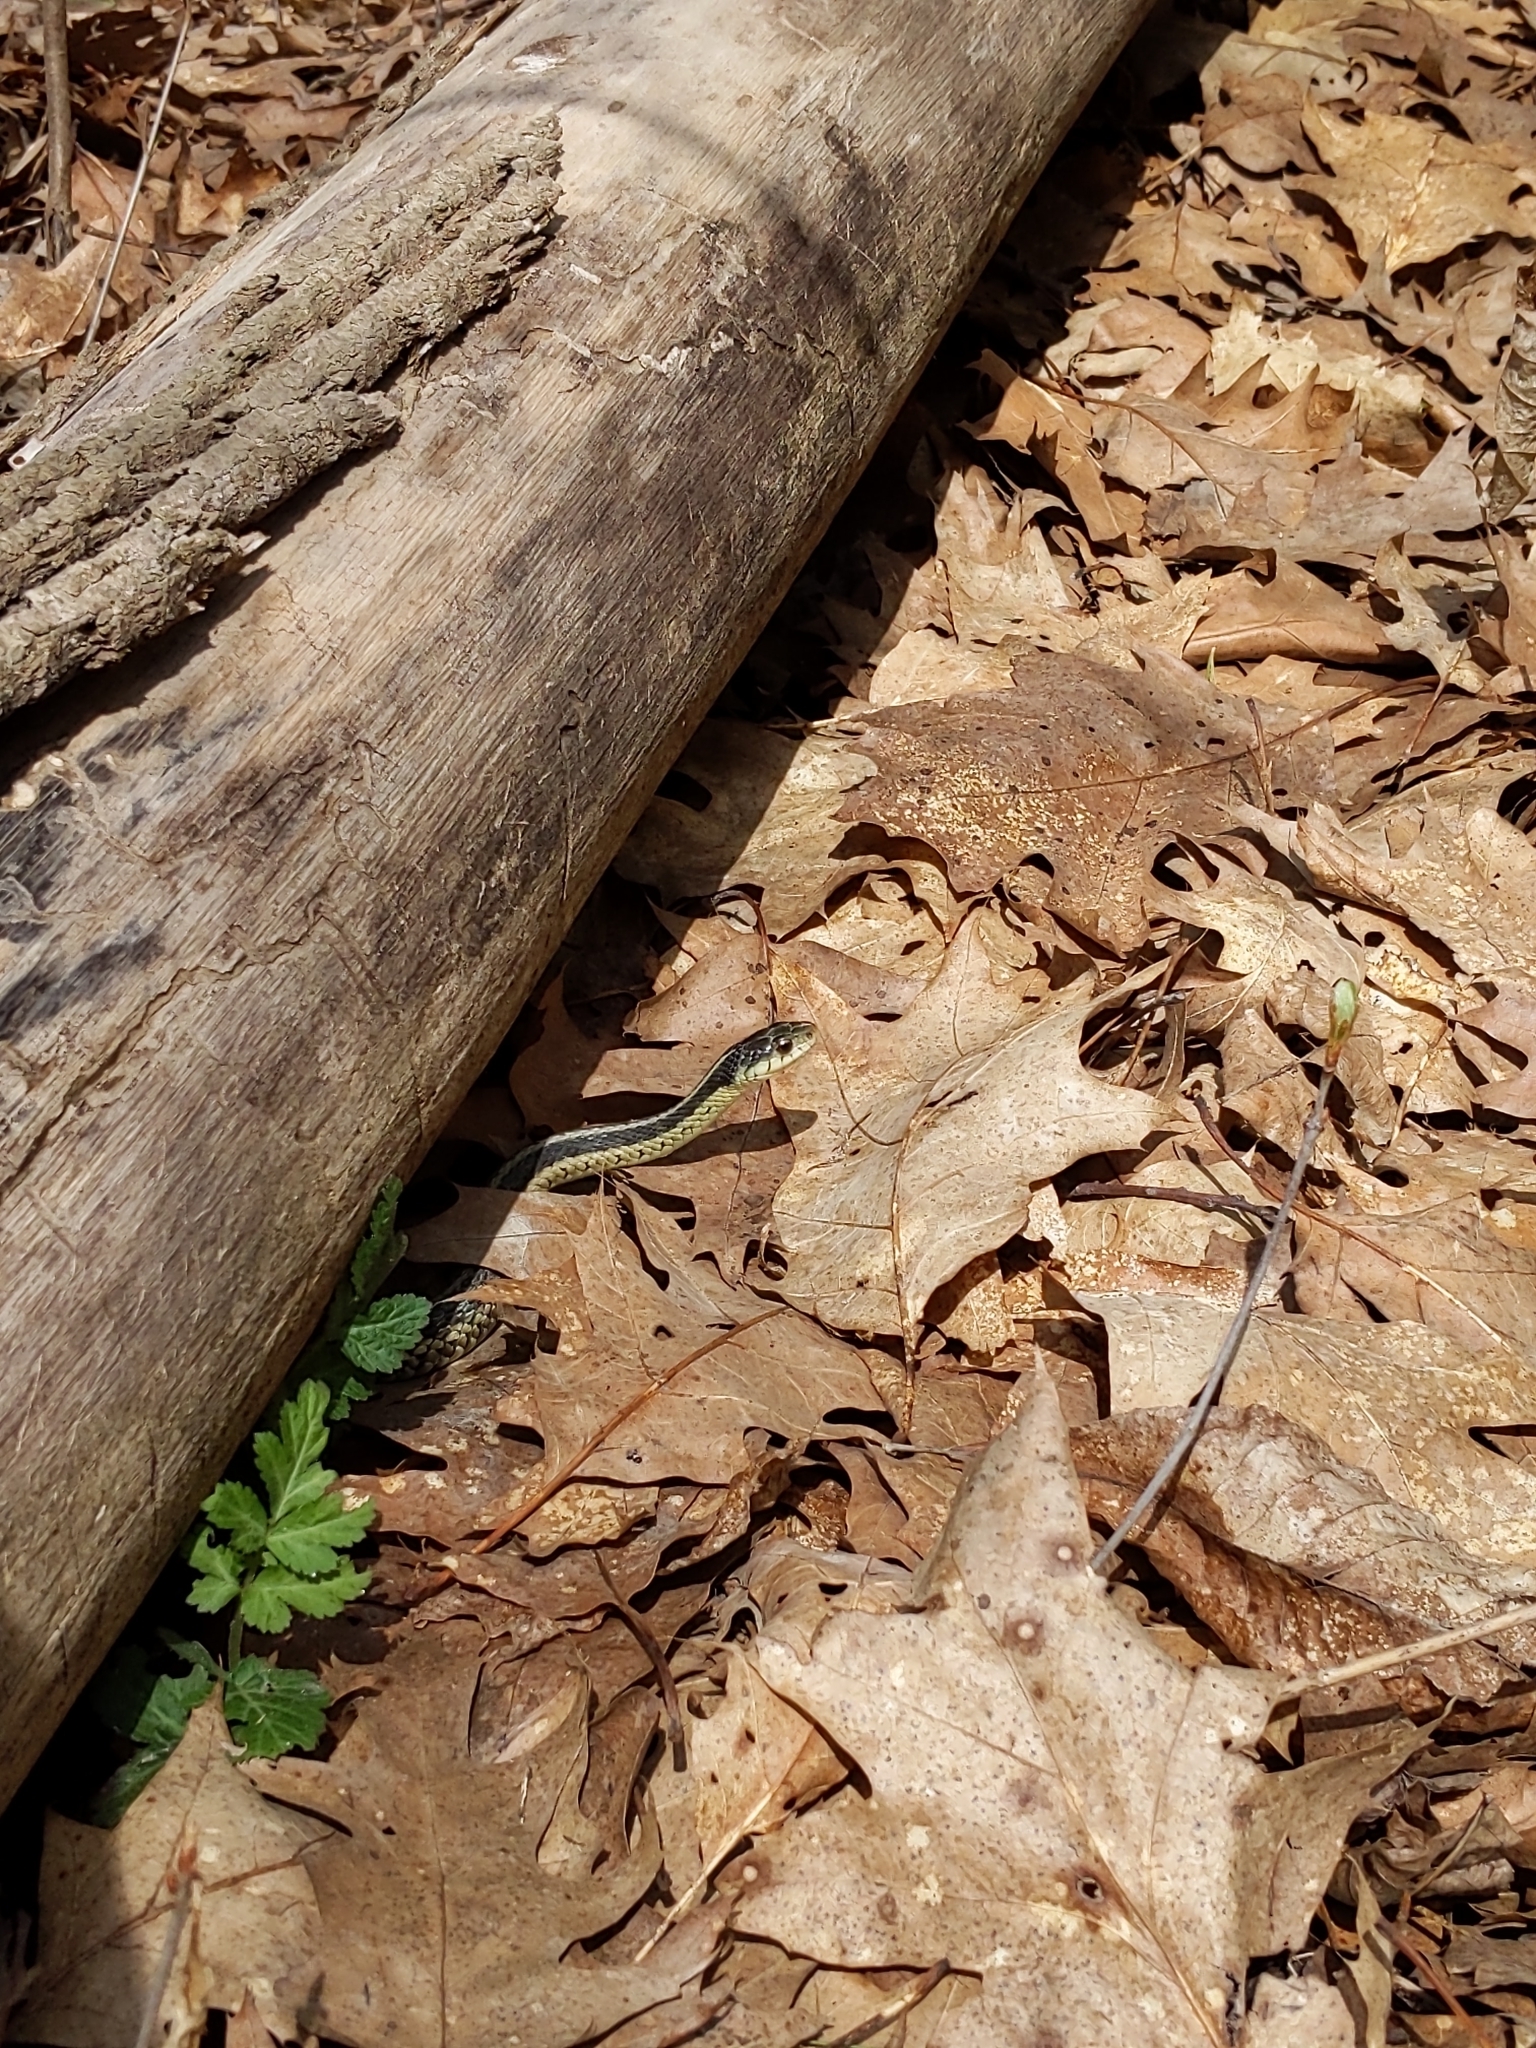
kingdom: Animalia
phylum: Chordata
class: Squamata
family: Colubridae
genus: Thamnophis
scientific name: Thamnophis sirtalis
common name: Common garter snake
